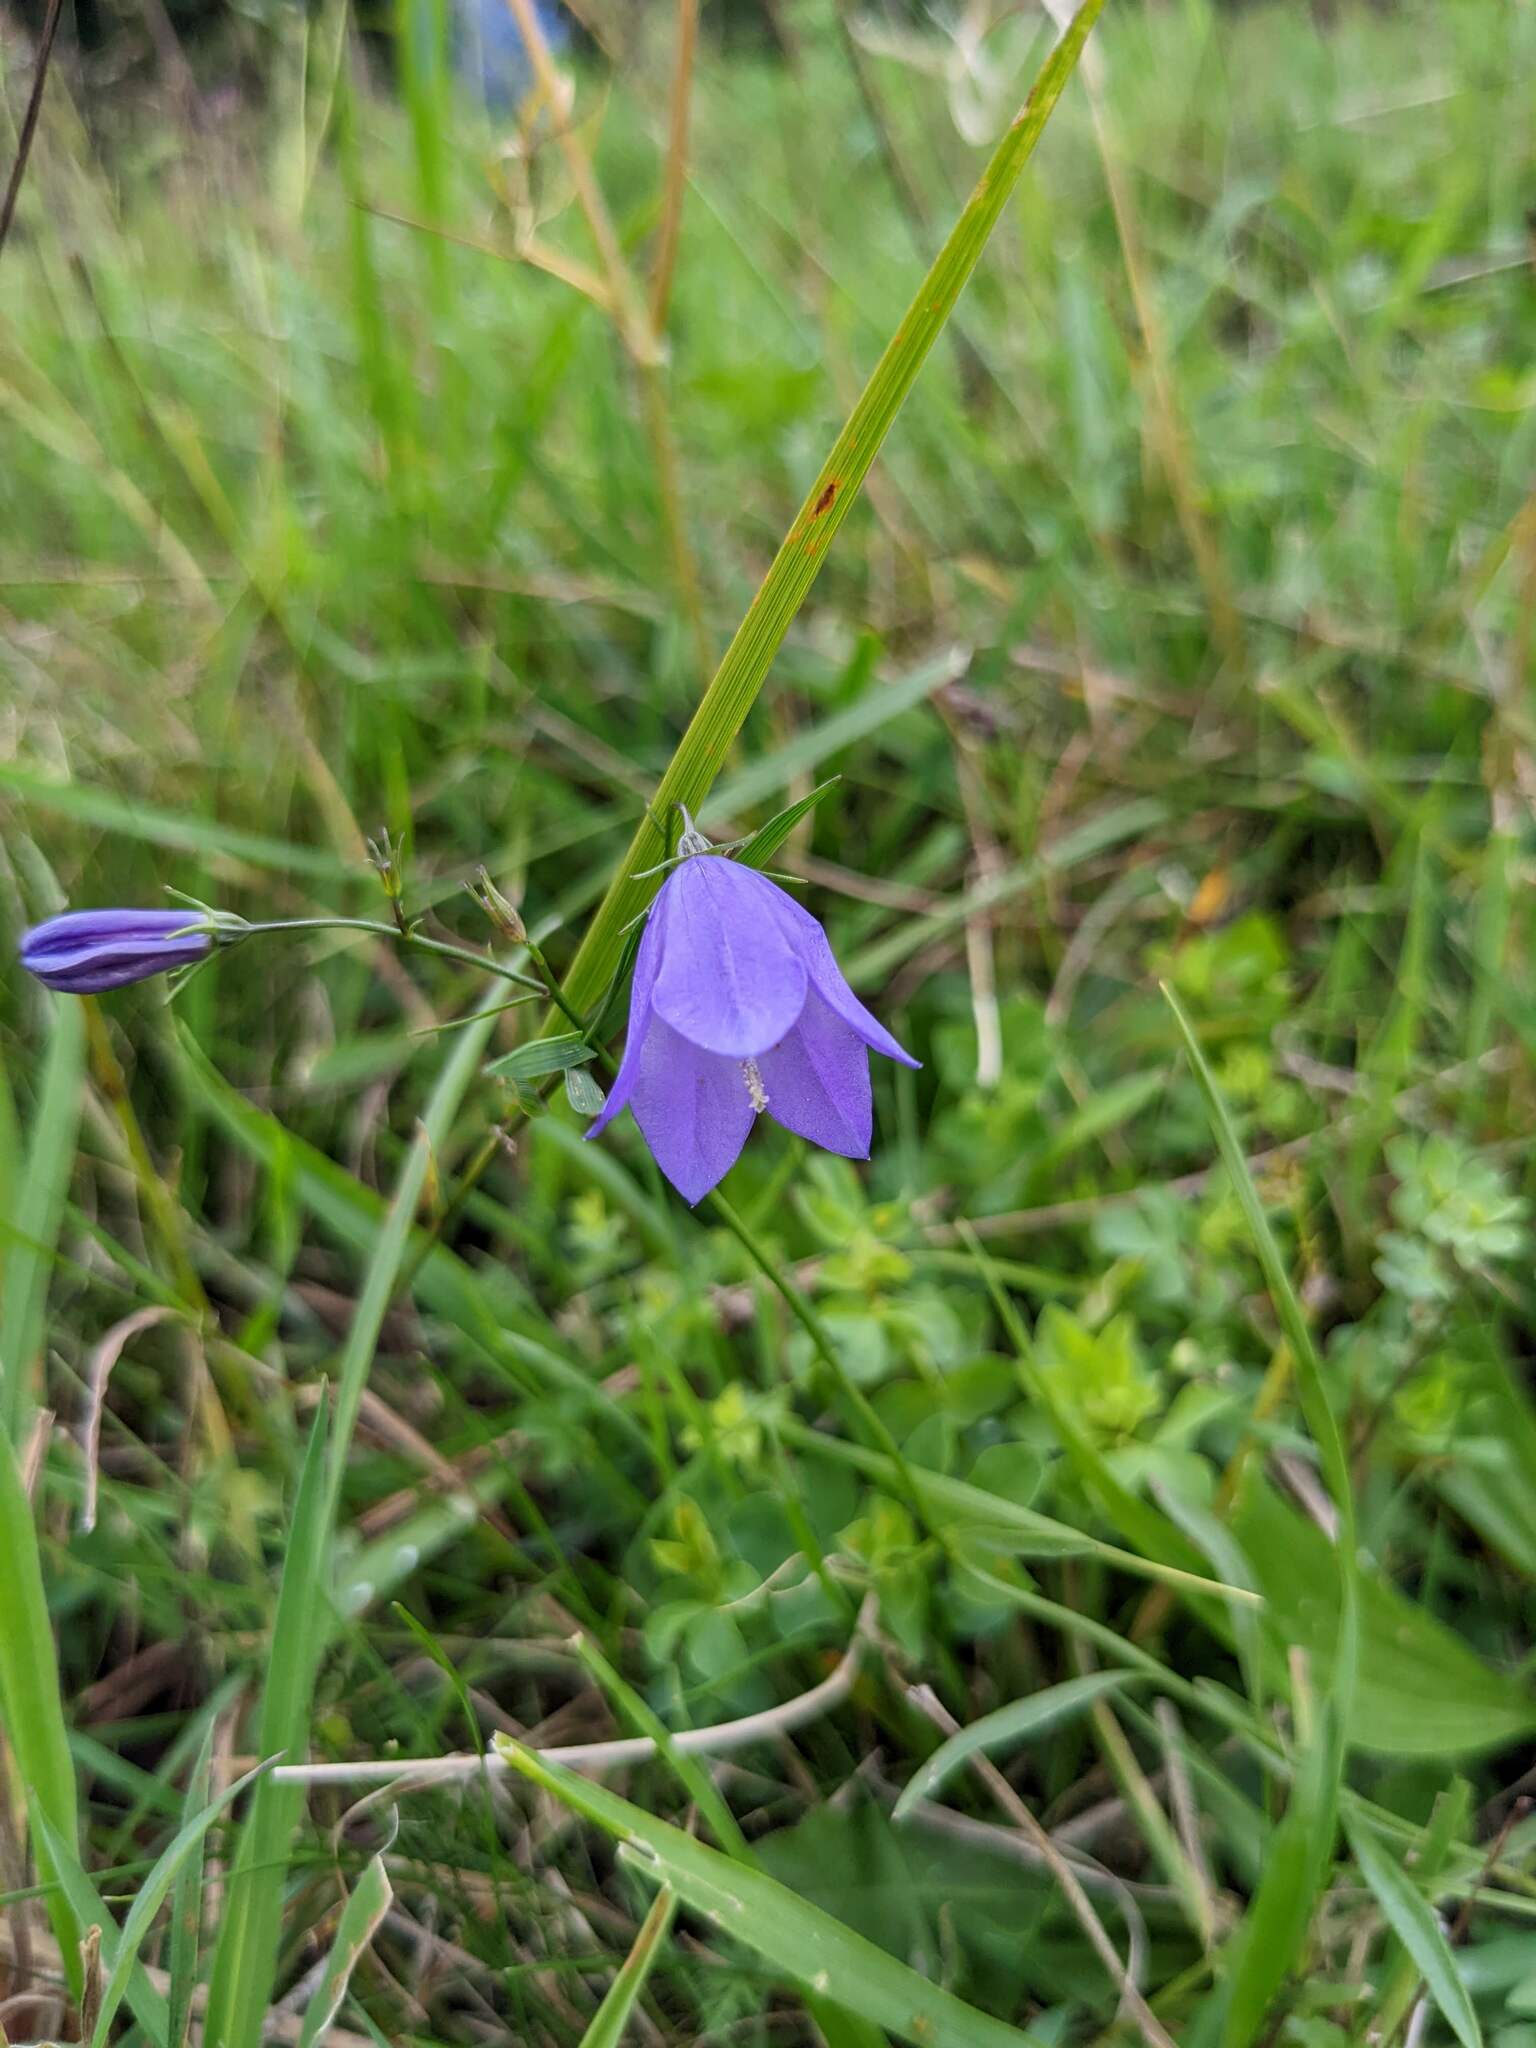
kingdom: Plantae
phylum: Tracheophyta
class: Magnoliopsida
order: Asterales
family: Campanulaceae
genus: Campanula
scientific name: Campanula rotundifolia
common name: Harebell
